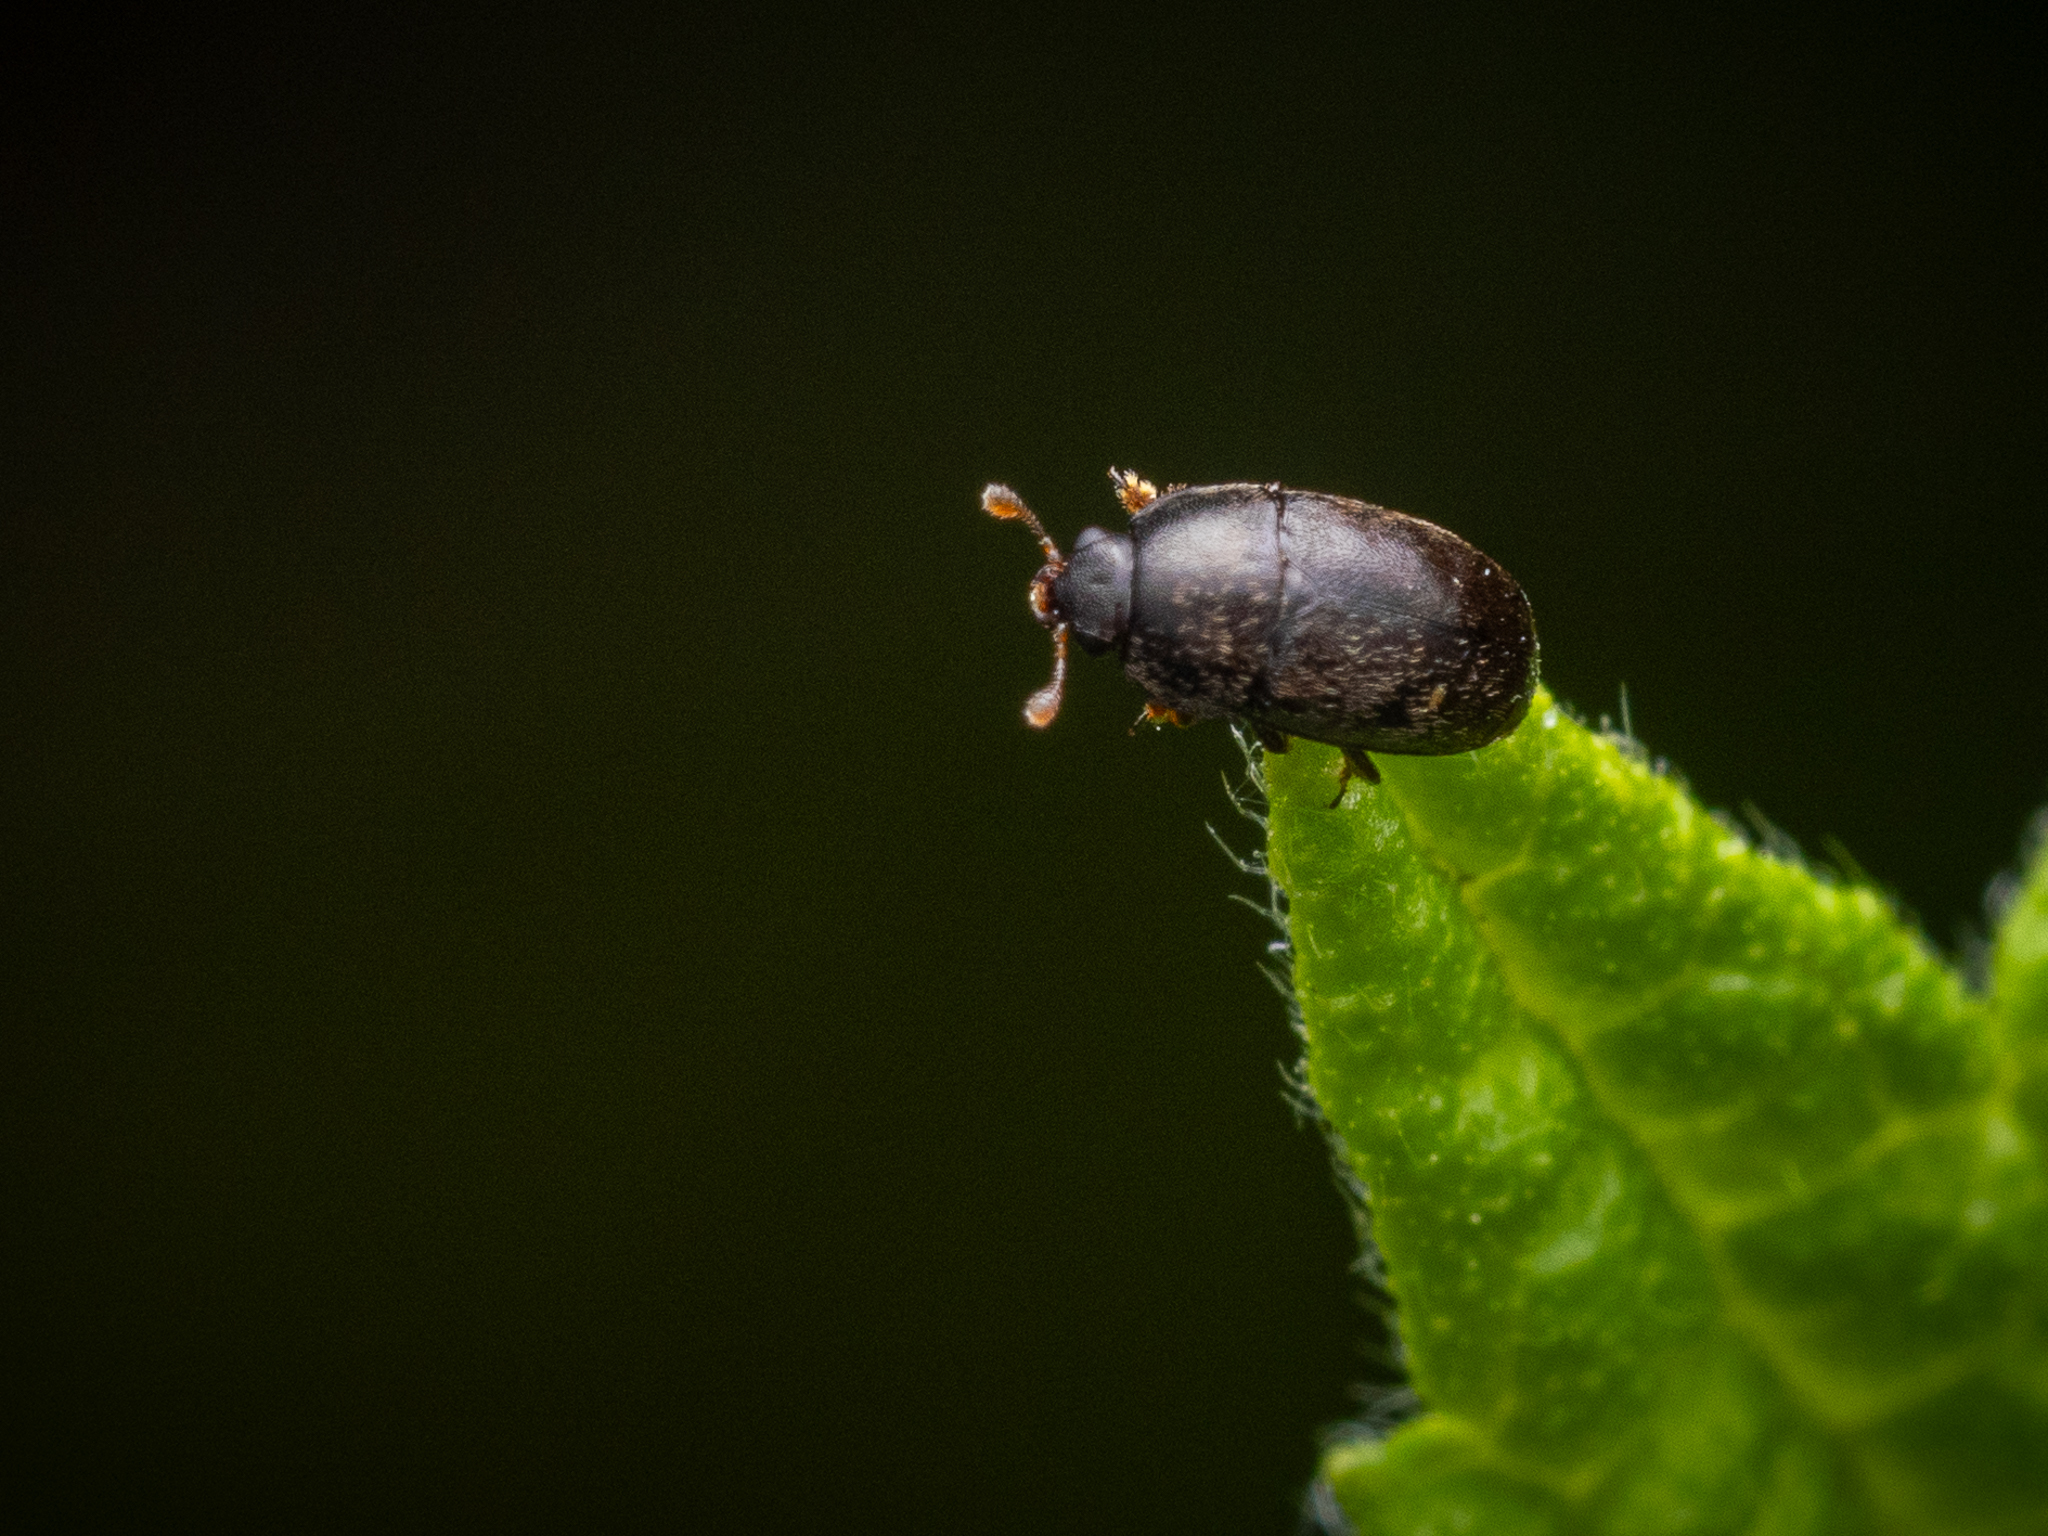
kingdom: Animalia
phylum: Arthropoda
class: Insecta
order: Coleoptera
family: Nitidulidae
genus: Meligethes
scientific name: Meligethes ruficornis
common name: Horehound pollen beetle
